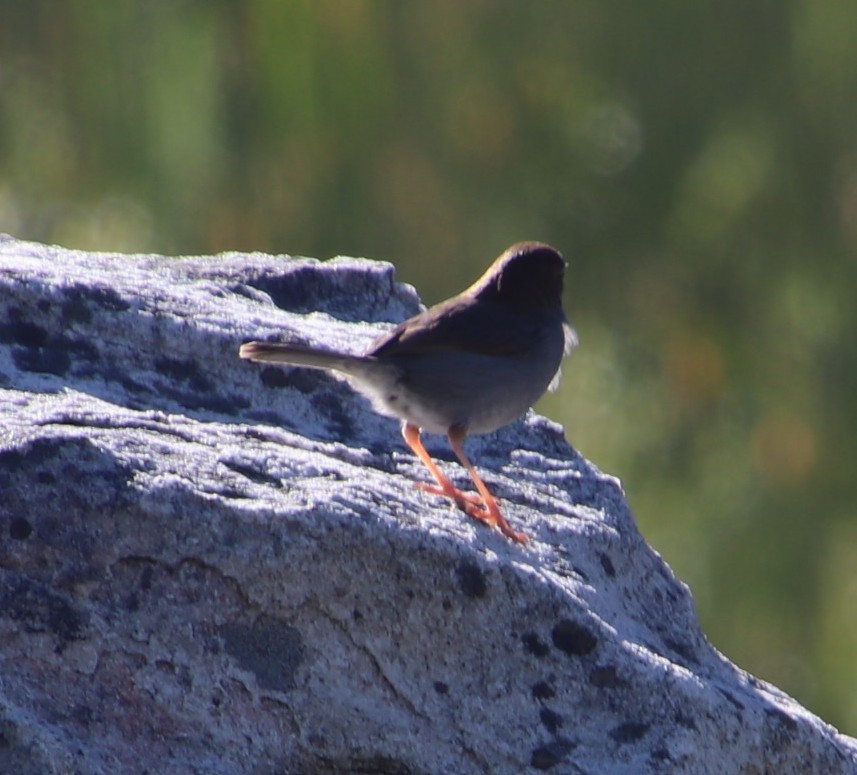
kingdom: Animalia
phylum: Chordata
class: Aves
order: Passeriformes
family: Cisticolidae
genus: Cisticola
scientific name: Cisticola fulvicapilla
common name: Neddicky
